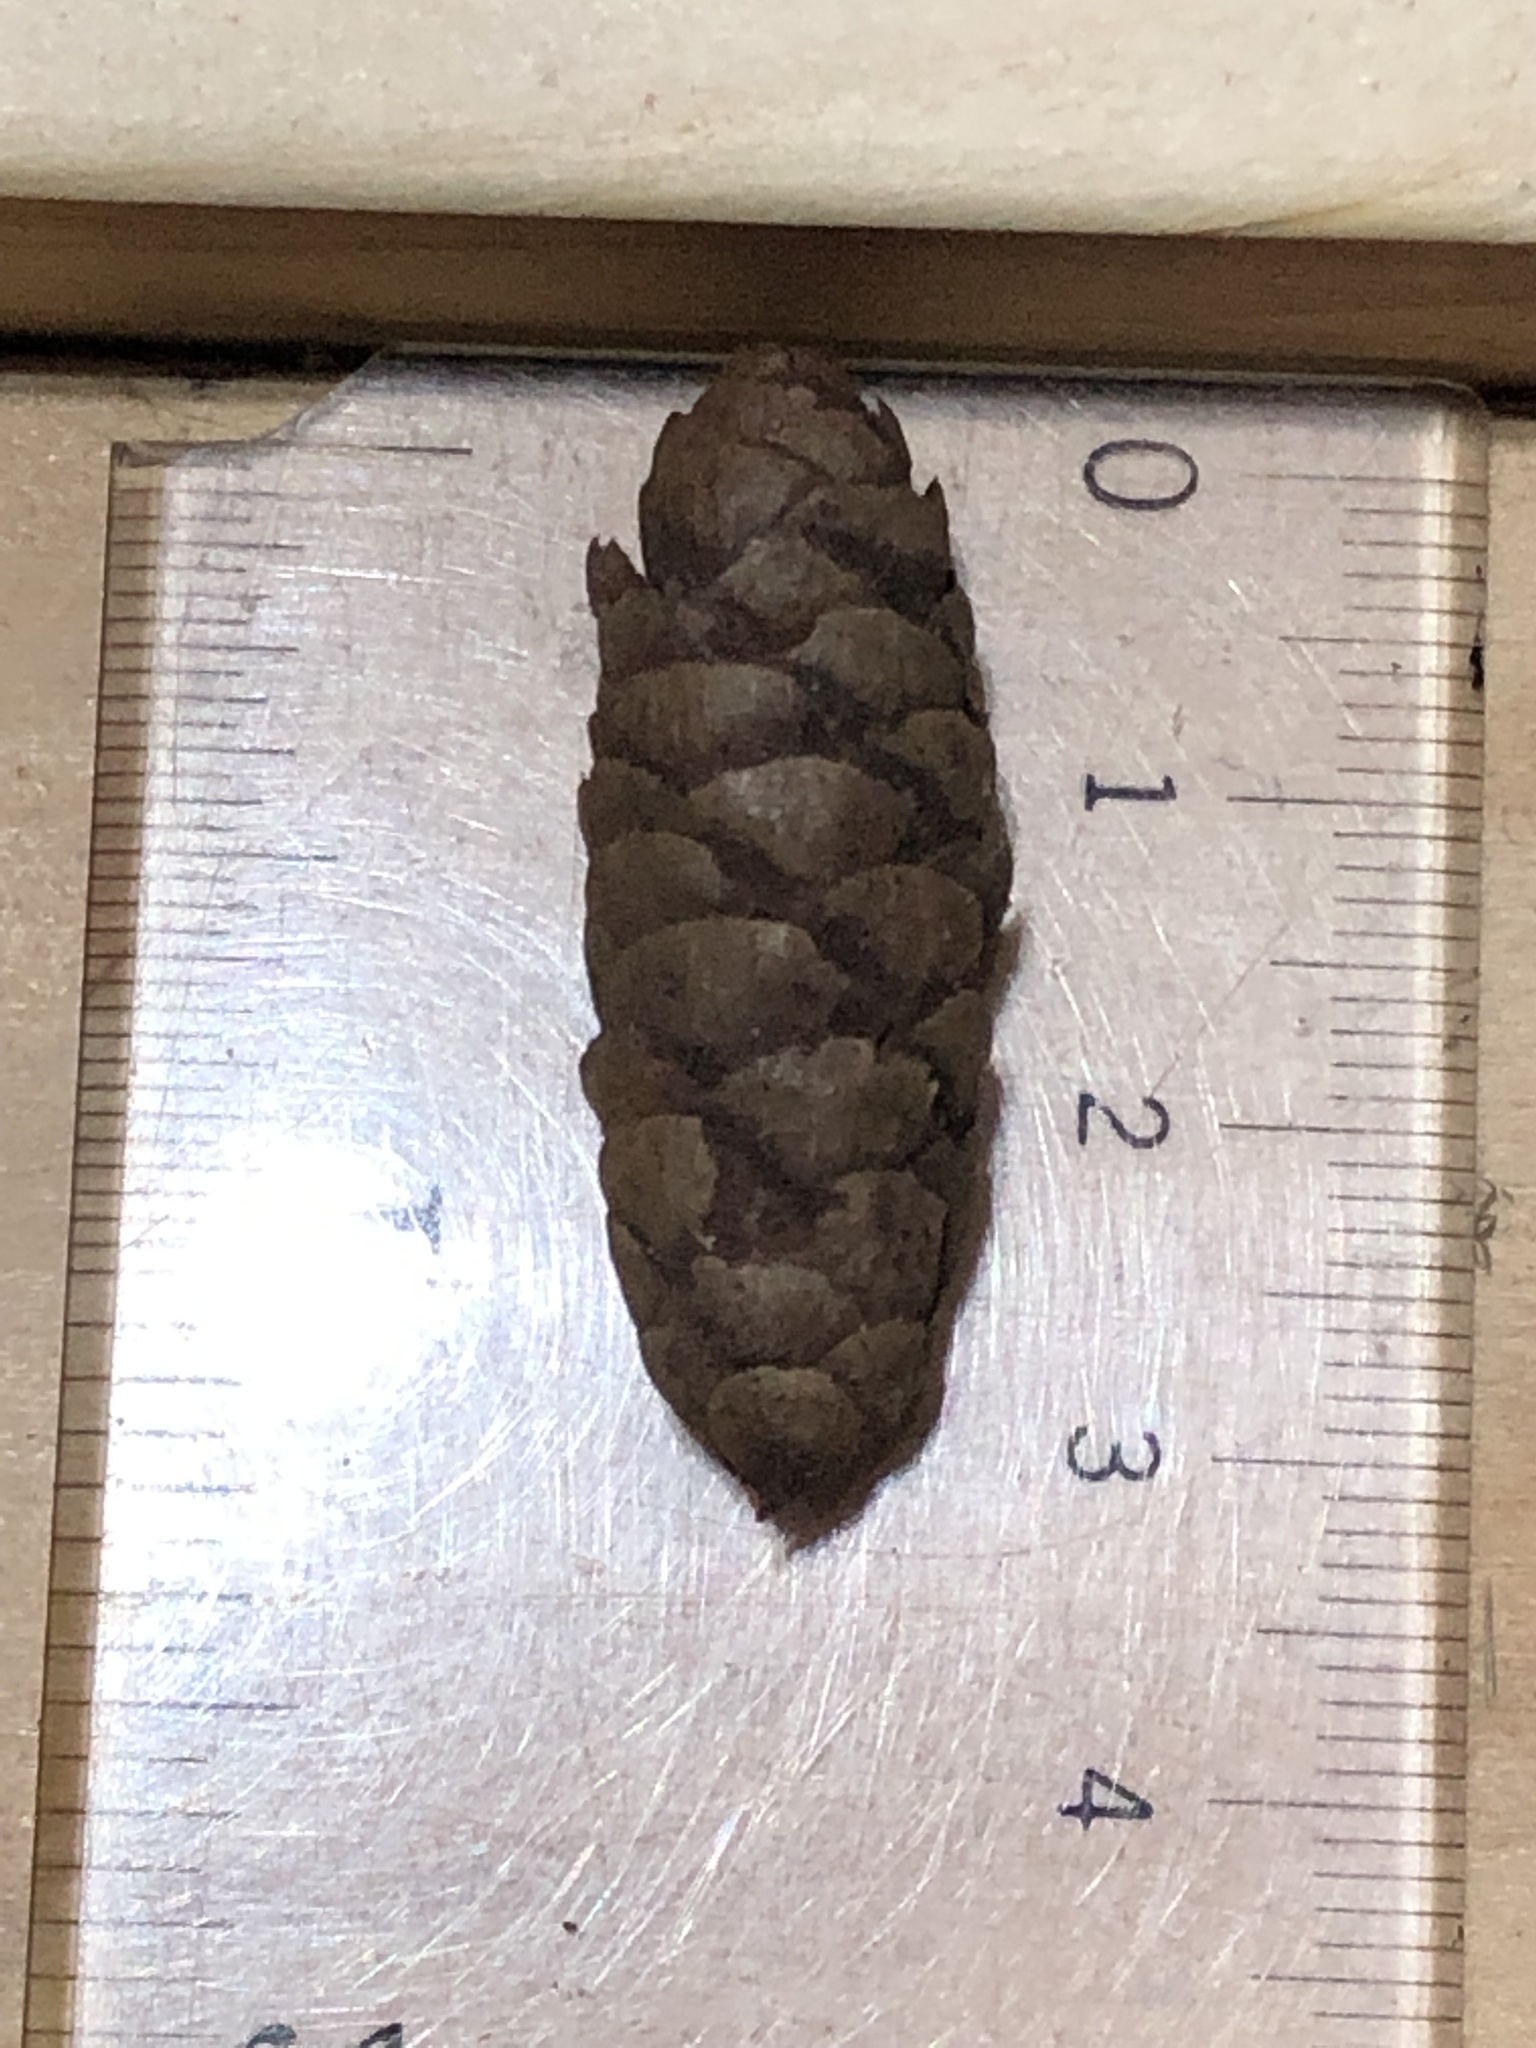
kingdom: Plantae
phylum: Tracheophyta
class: Pinopsida
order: Pinales
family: Pinaceae
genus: Picea
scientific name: Picea glauca
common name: White spruce
